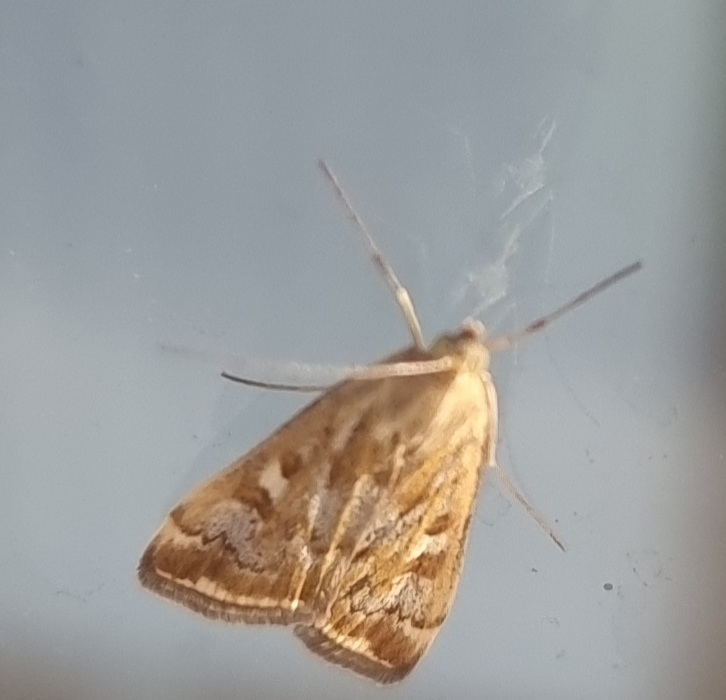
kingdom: Animalia
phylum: Arthropoda
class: Insecta
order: Lepidoptera
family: Crambidae
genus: Loxostege
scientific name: Loxostege sticticalis
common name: Crambid moth
